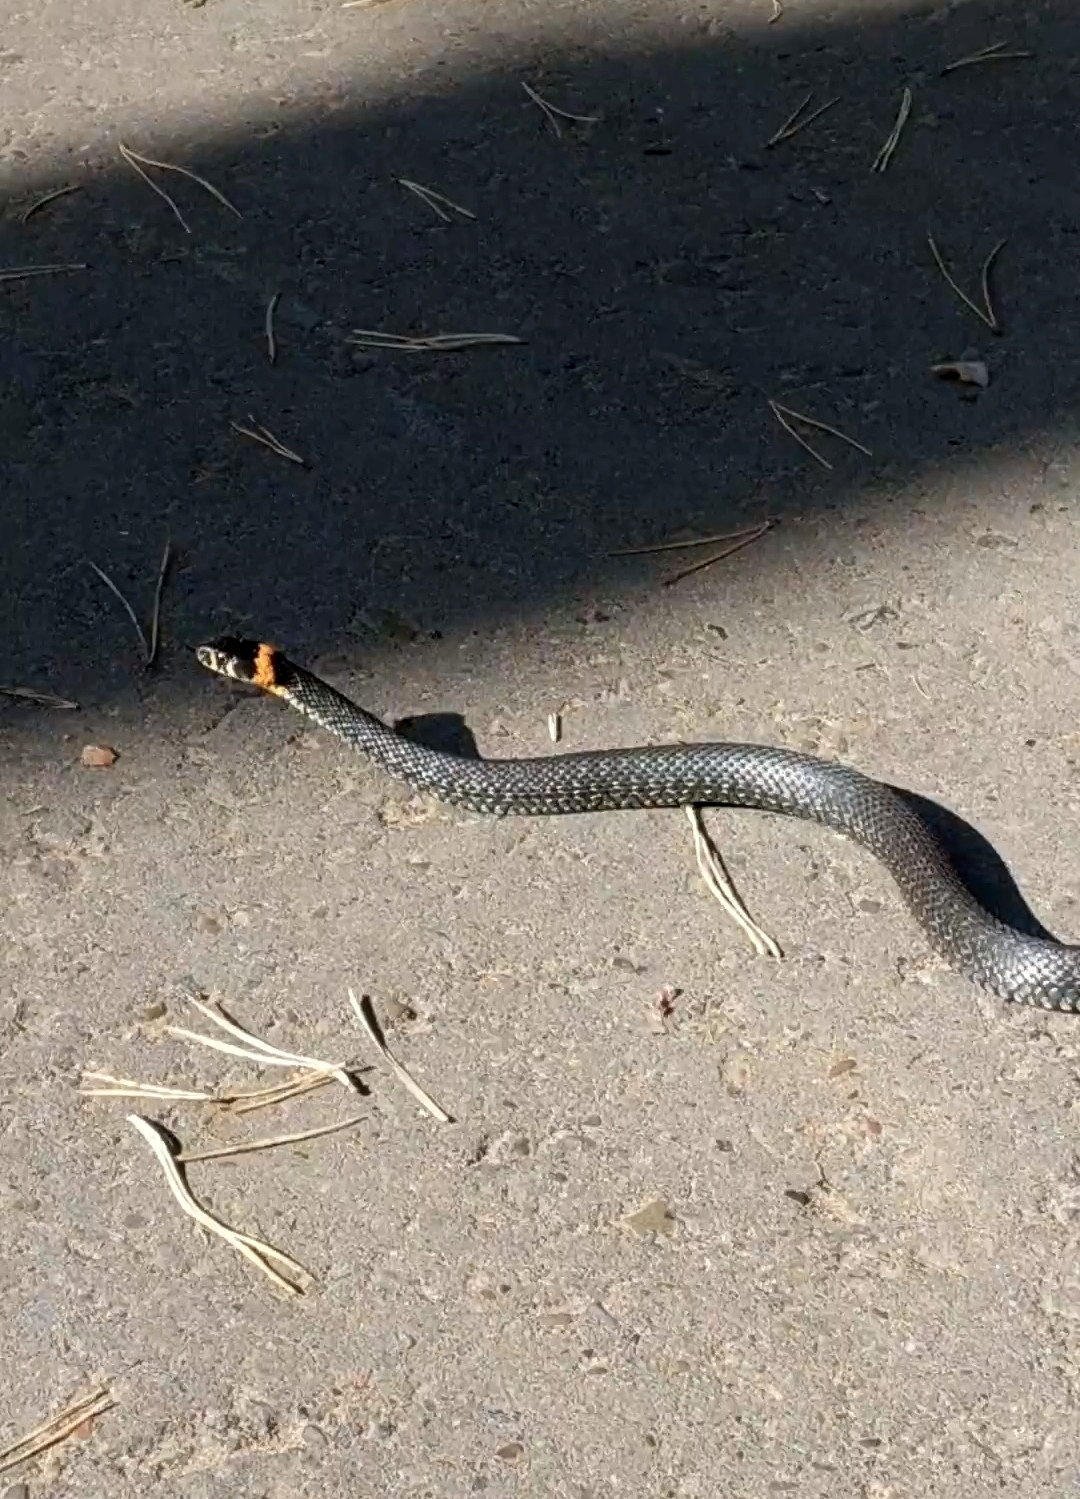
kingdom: Animalia
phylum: Chordata
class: Squamata
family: Colubridae
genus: Natrix
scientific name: Natrix natrix
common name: Grass snake
